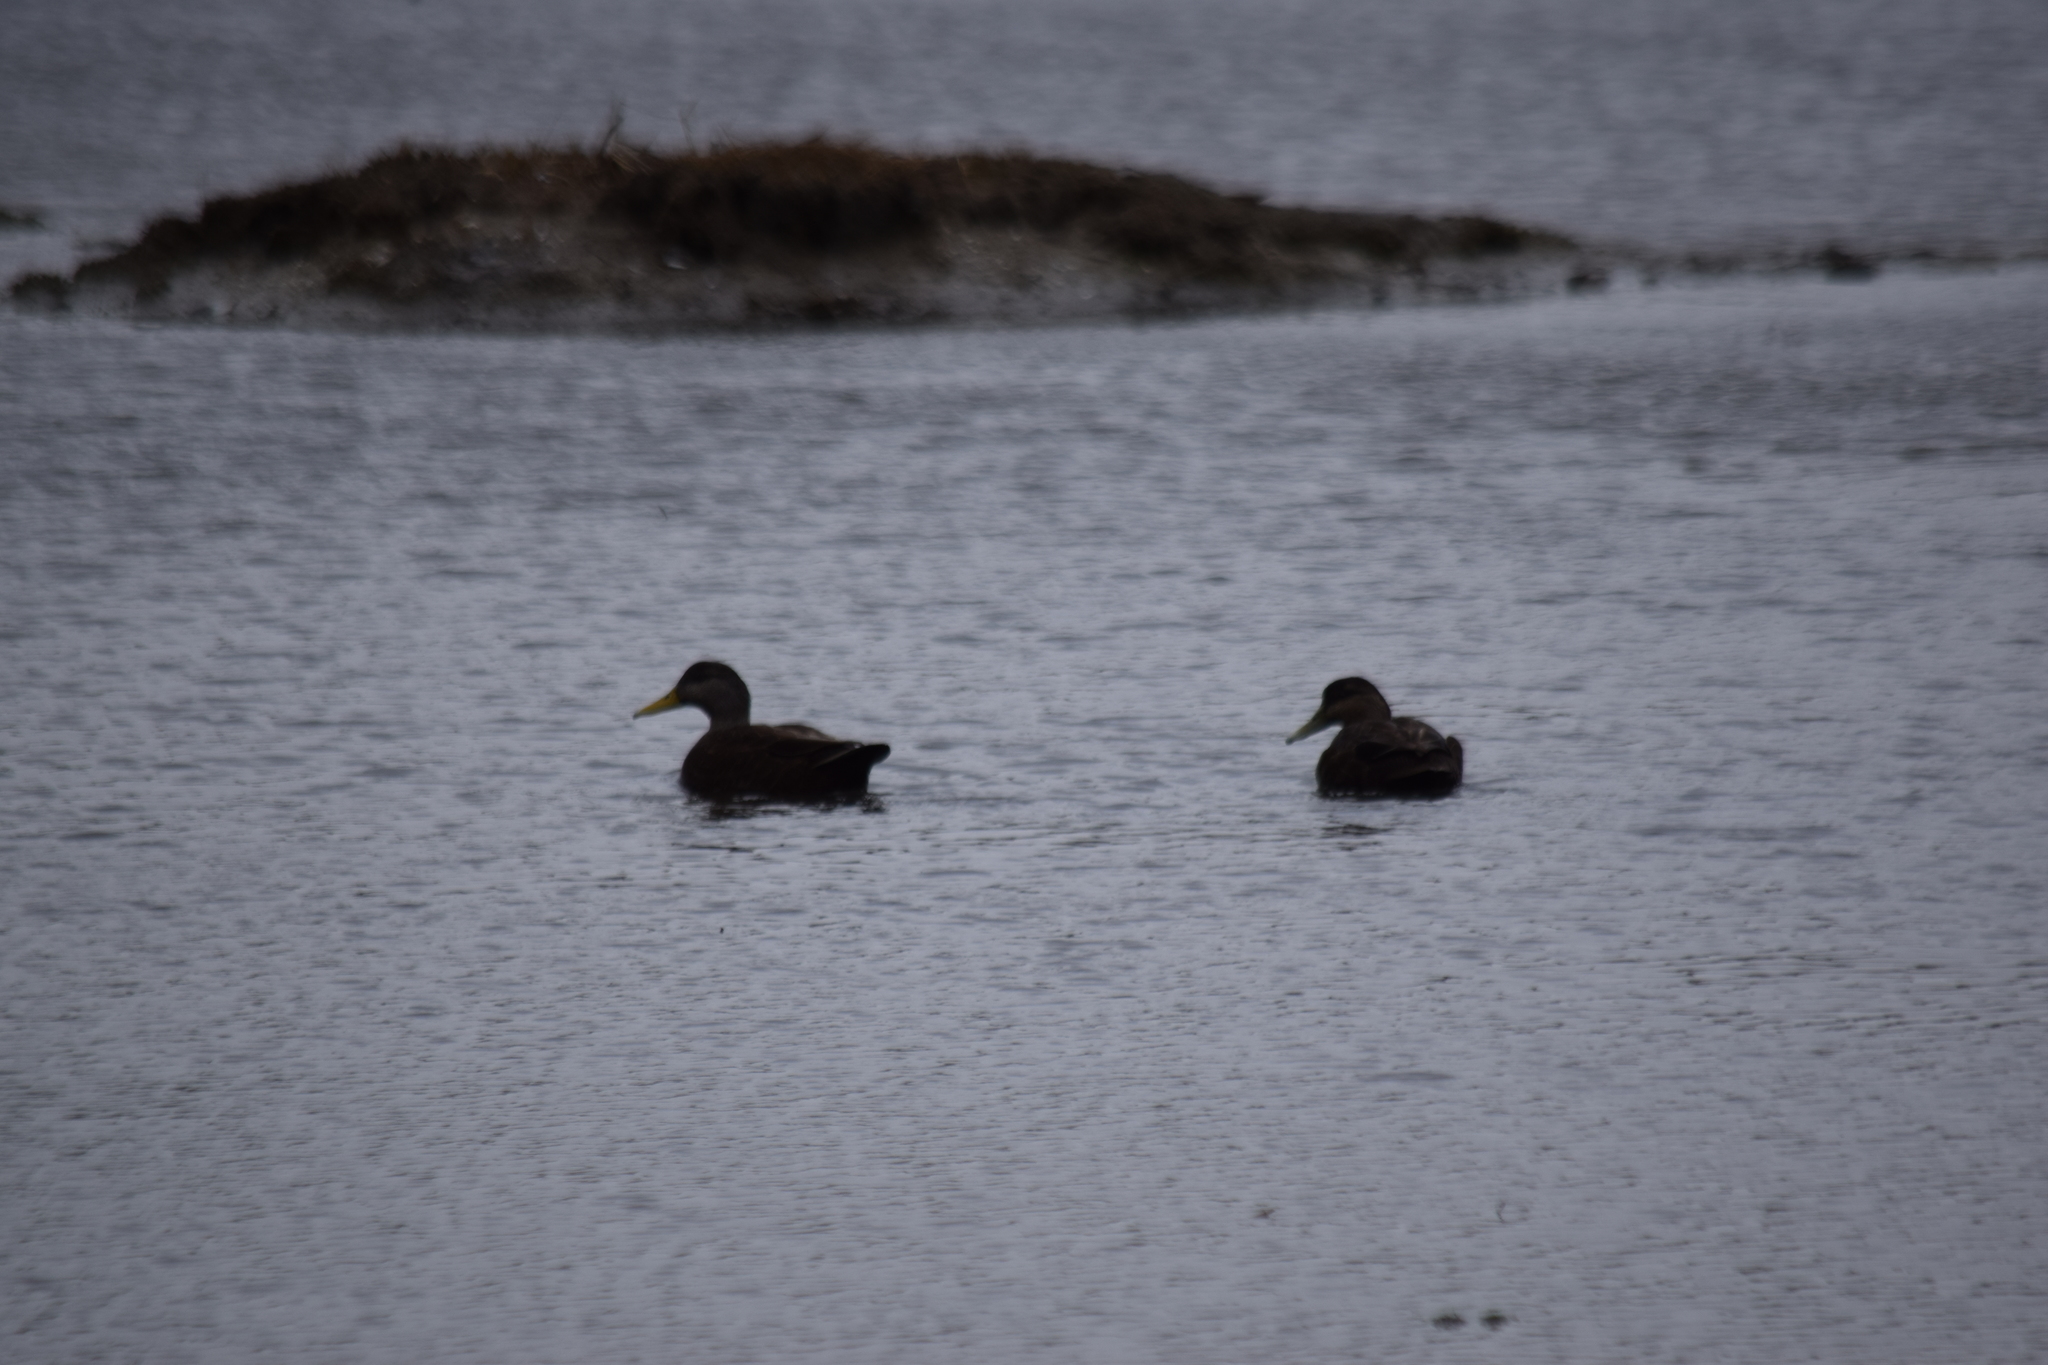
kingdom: Animalia
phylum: Chordata
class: Aves
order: Anseriformes
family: Anatidae
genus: Anas
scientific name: Anas rubripes
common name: American black duck
